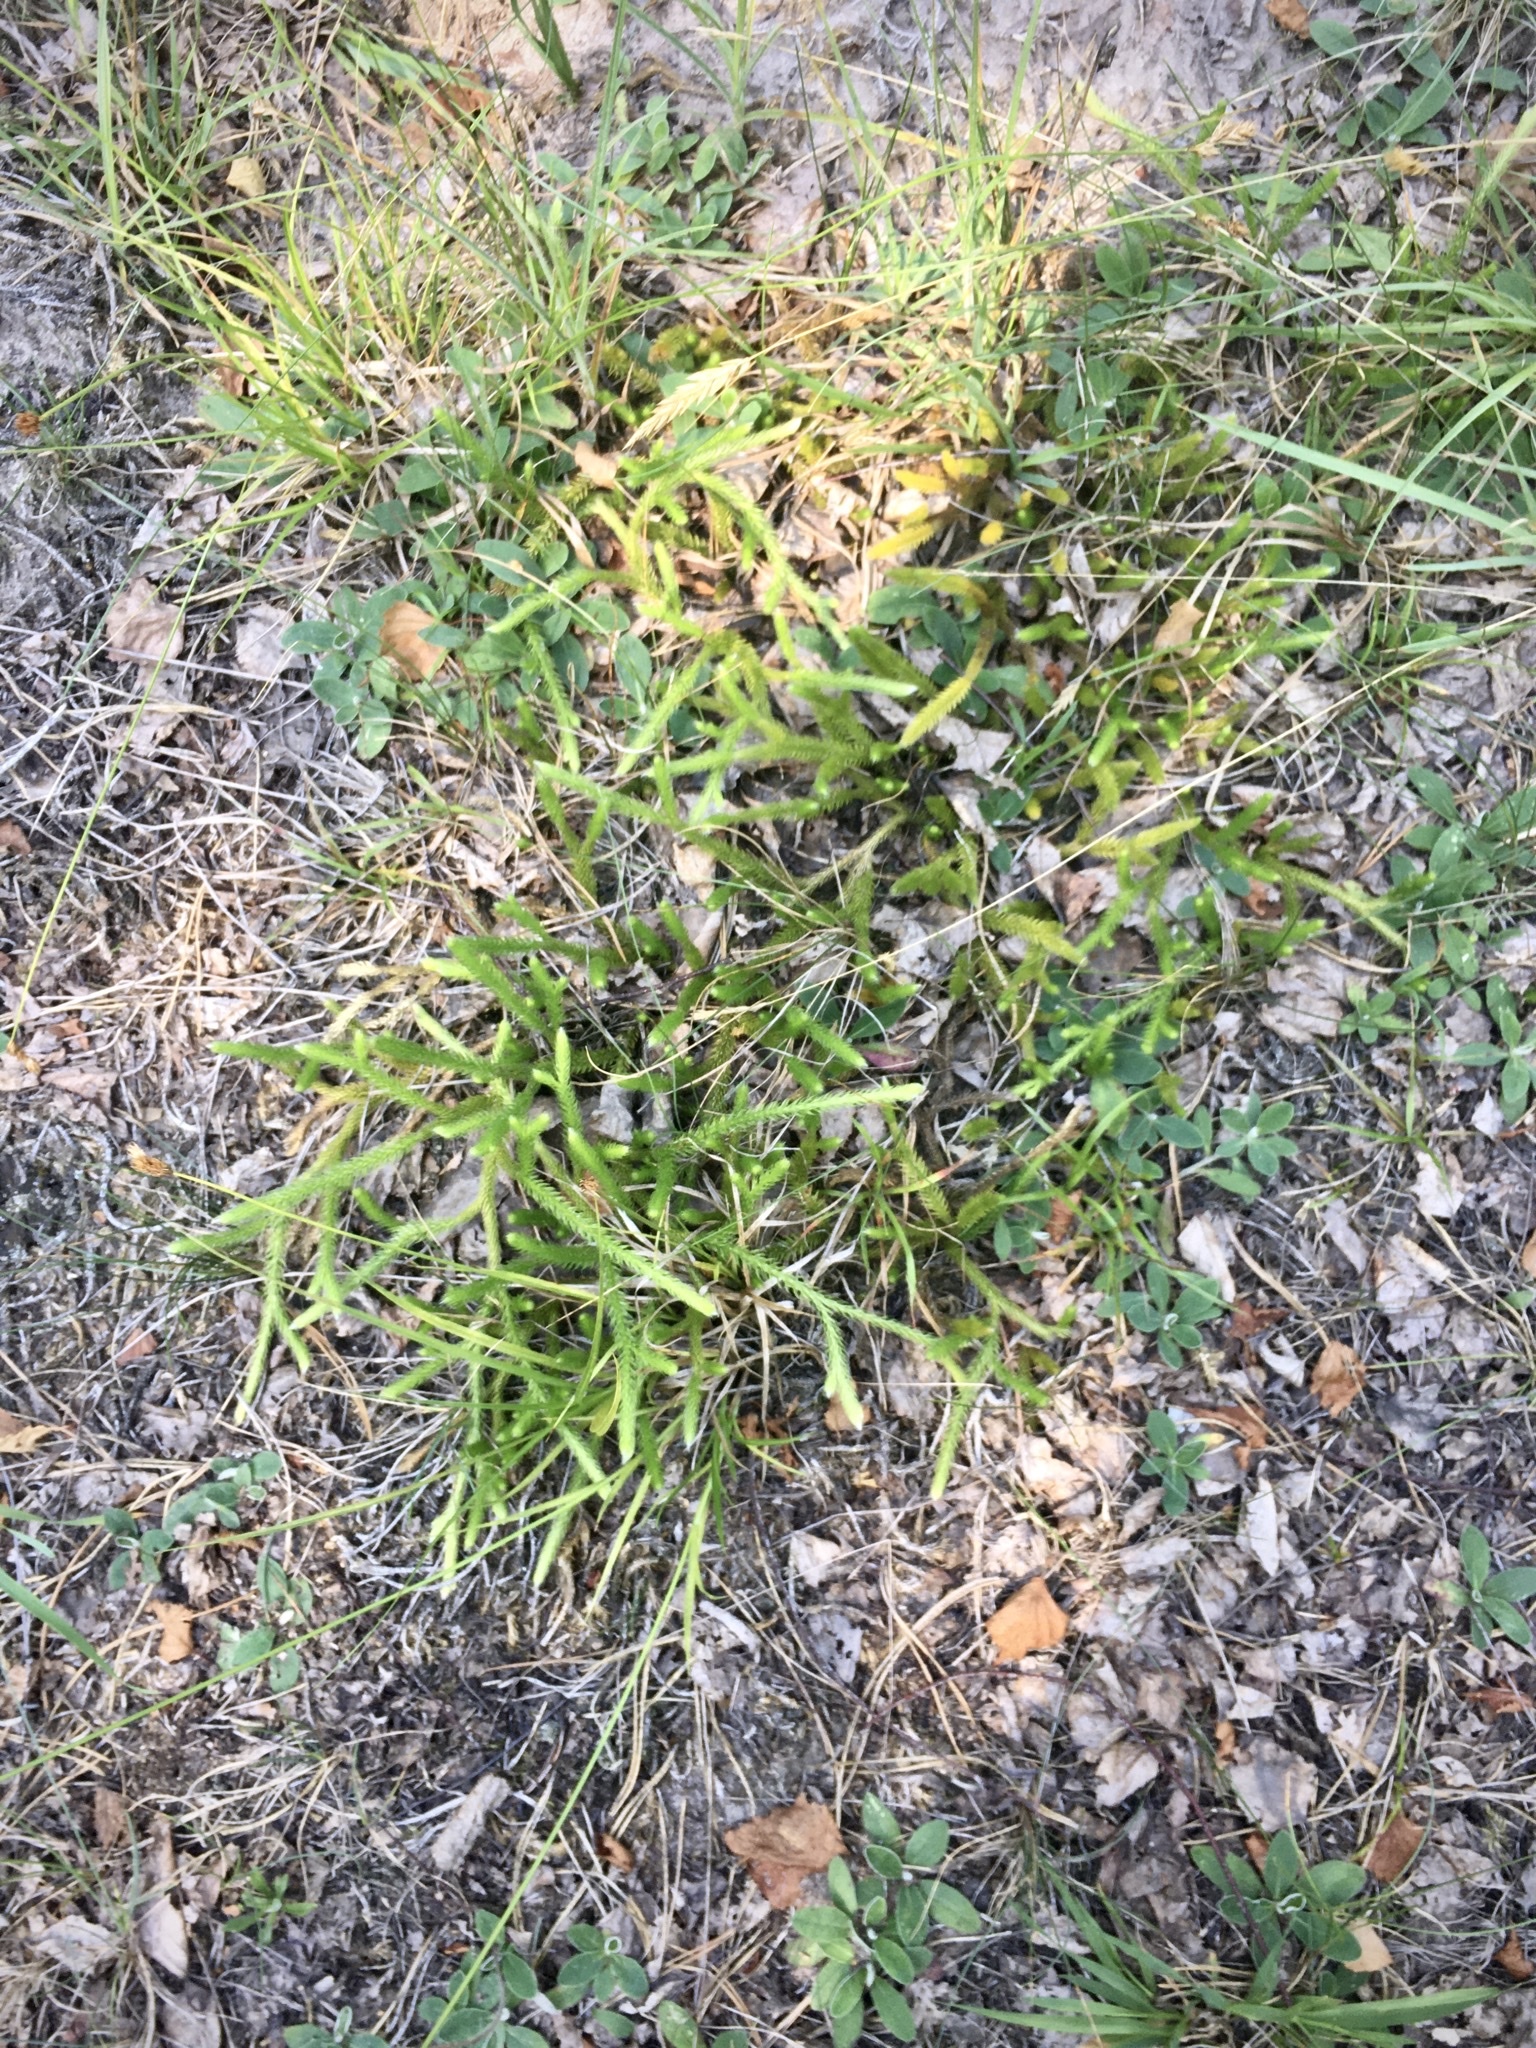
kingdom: Plantae
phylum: Tracheophyta
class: Lycopodiopsida
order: Lycopodiales
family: Lycopodiaceae
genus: Lycopodium
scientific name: Lycopodium clavatum
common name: Stag's-horn clubmoss
